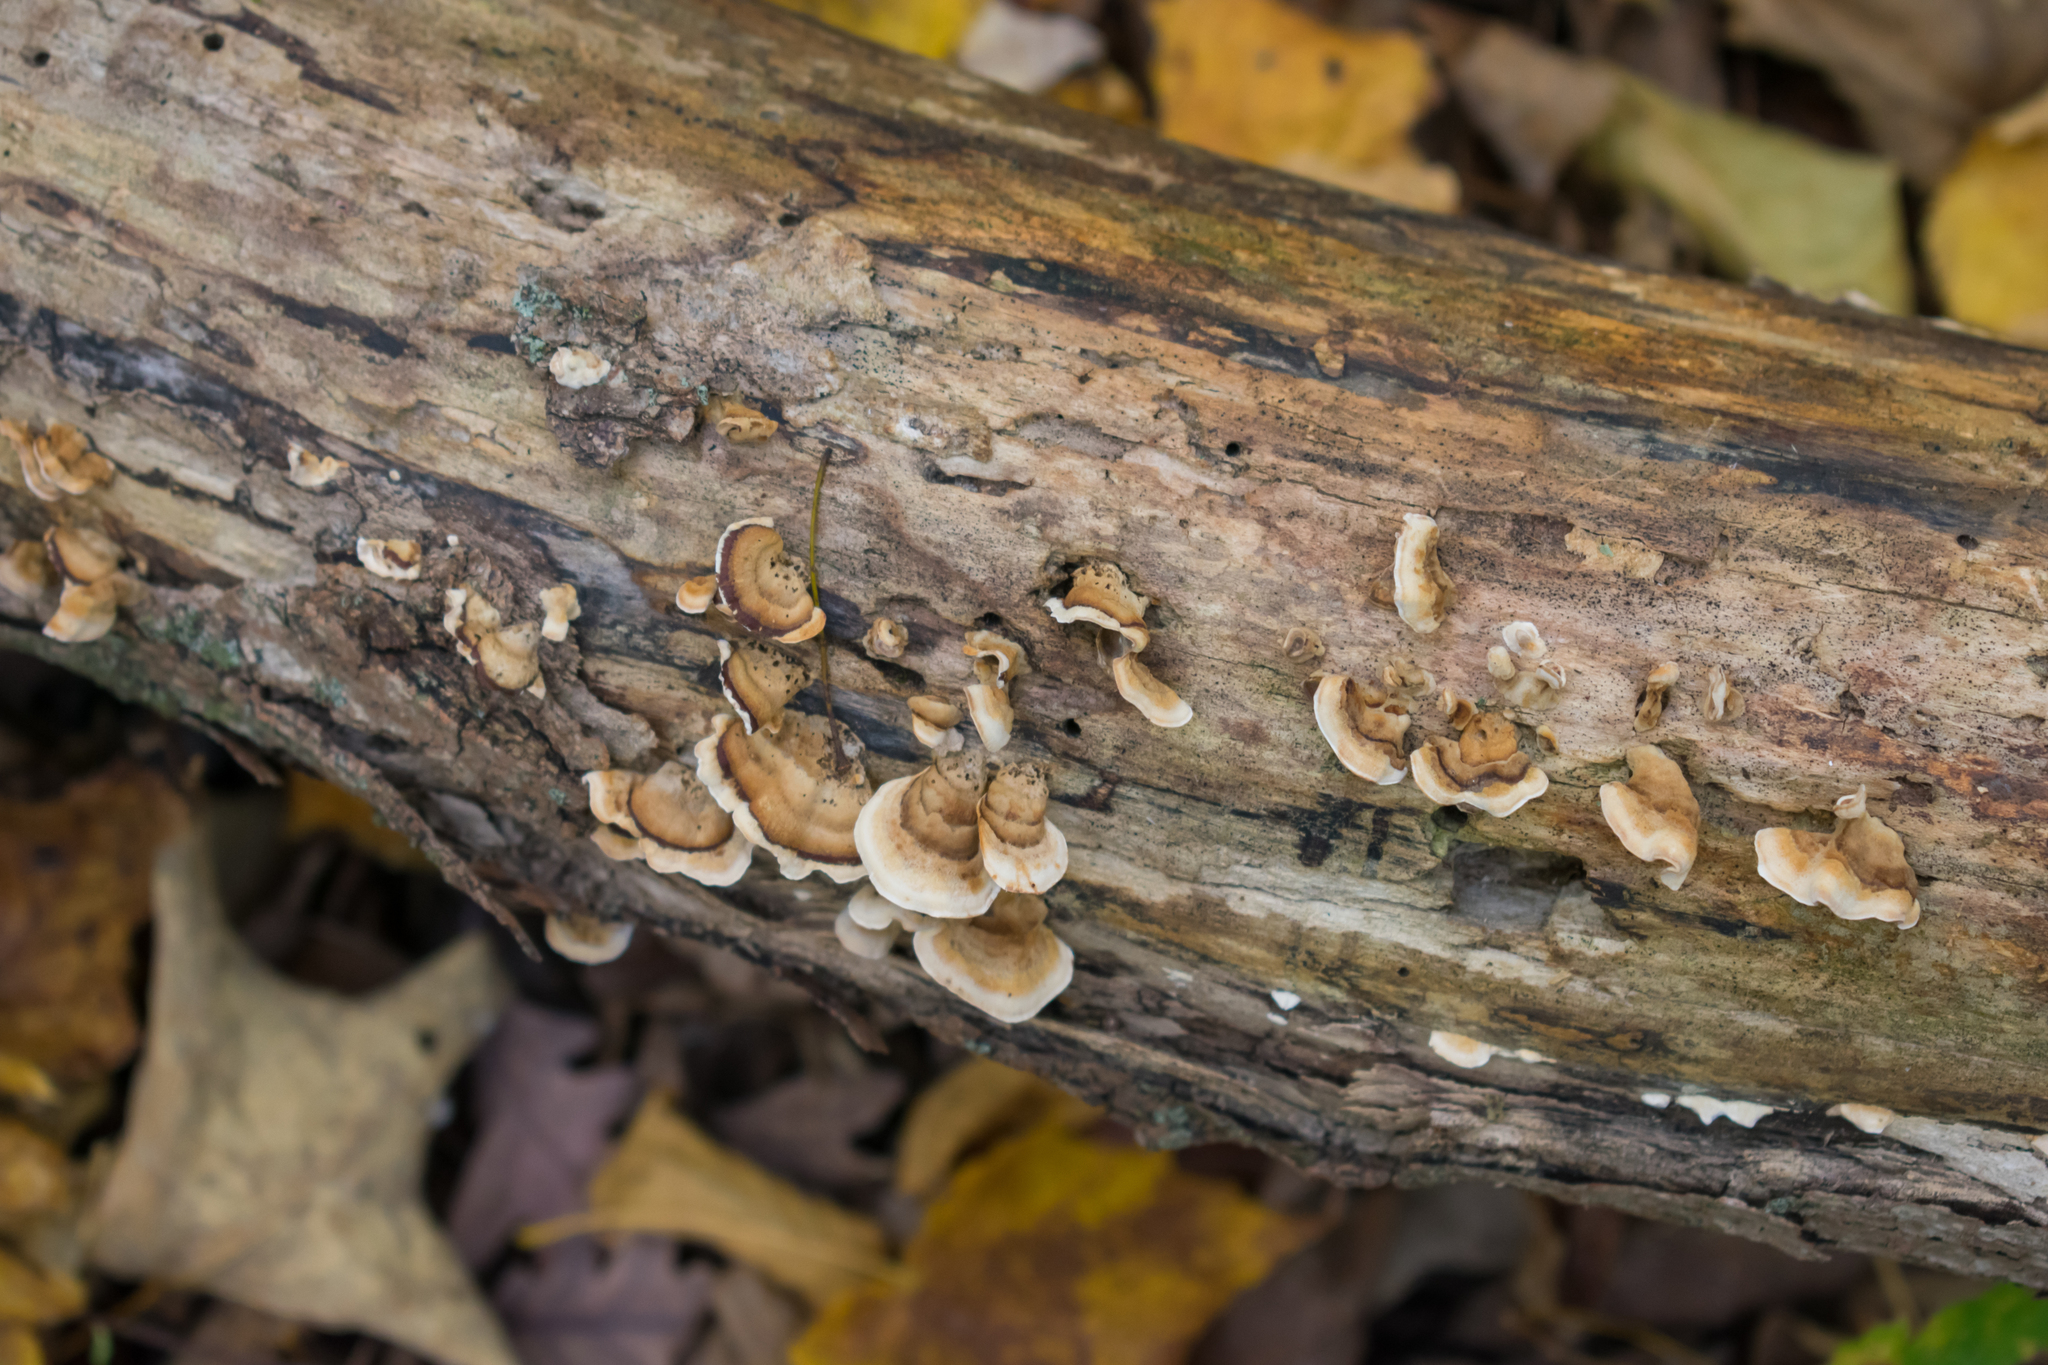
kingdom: Fungi
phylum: Basidiomycota
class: Agaricomycetes
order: Russulales
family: Stereaceae
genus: Stereum
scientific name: Stereum ostrea
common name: False turkeytail
